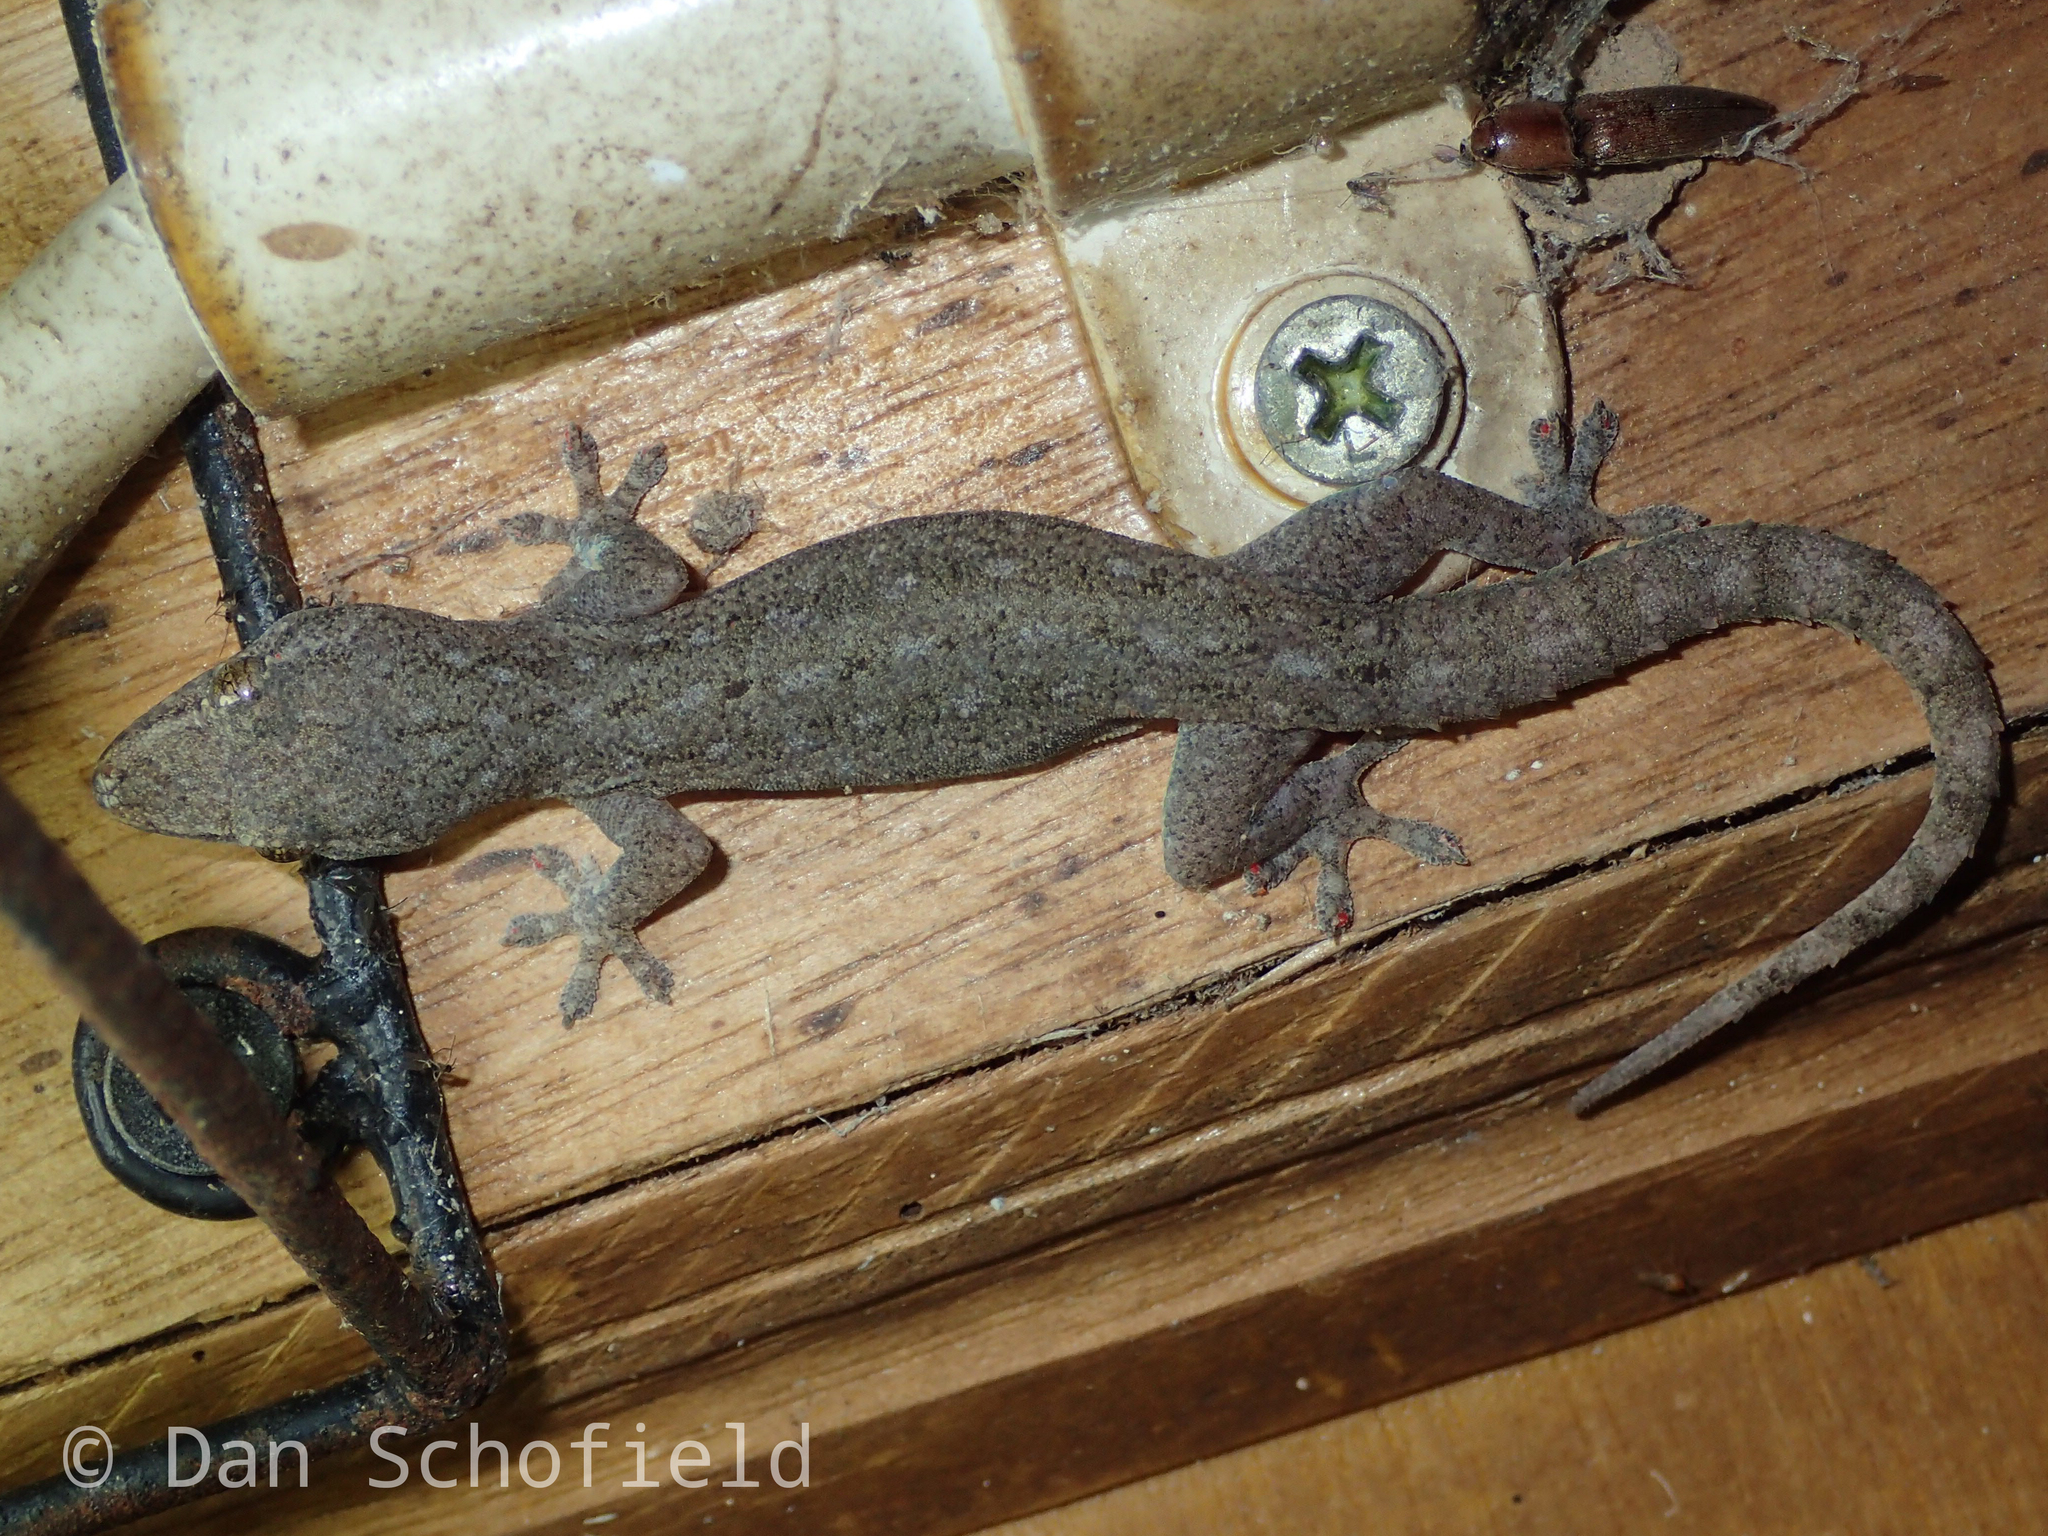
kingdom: Animalia
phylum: Chordata
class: Squamata
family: Gekkonidae
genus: Hemidactylus
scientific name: Hemidactylus frenatus
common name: Common house gecko
